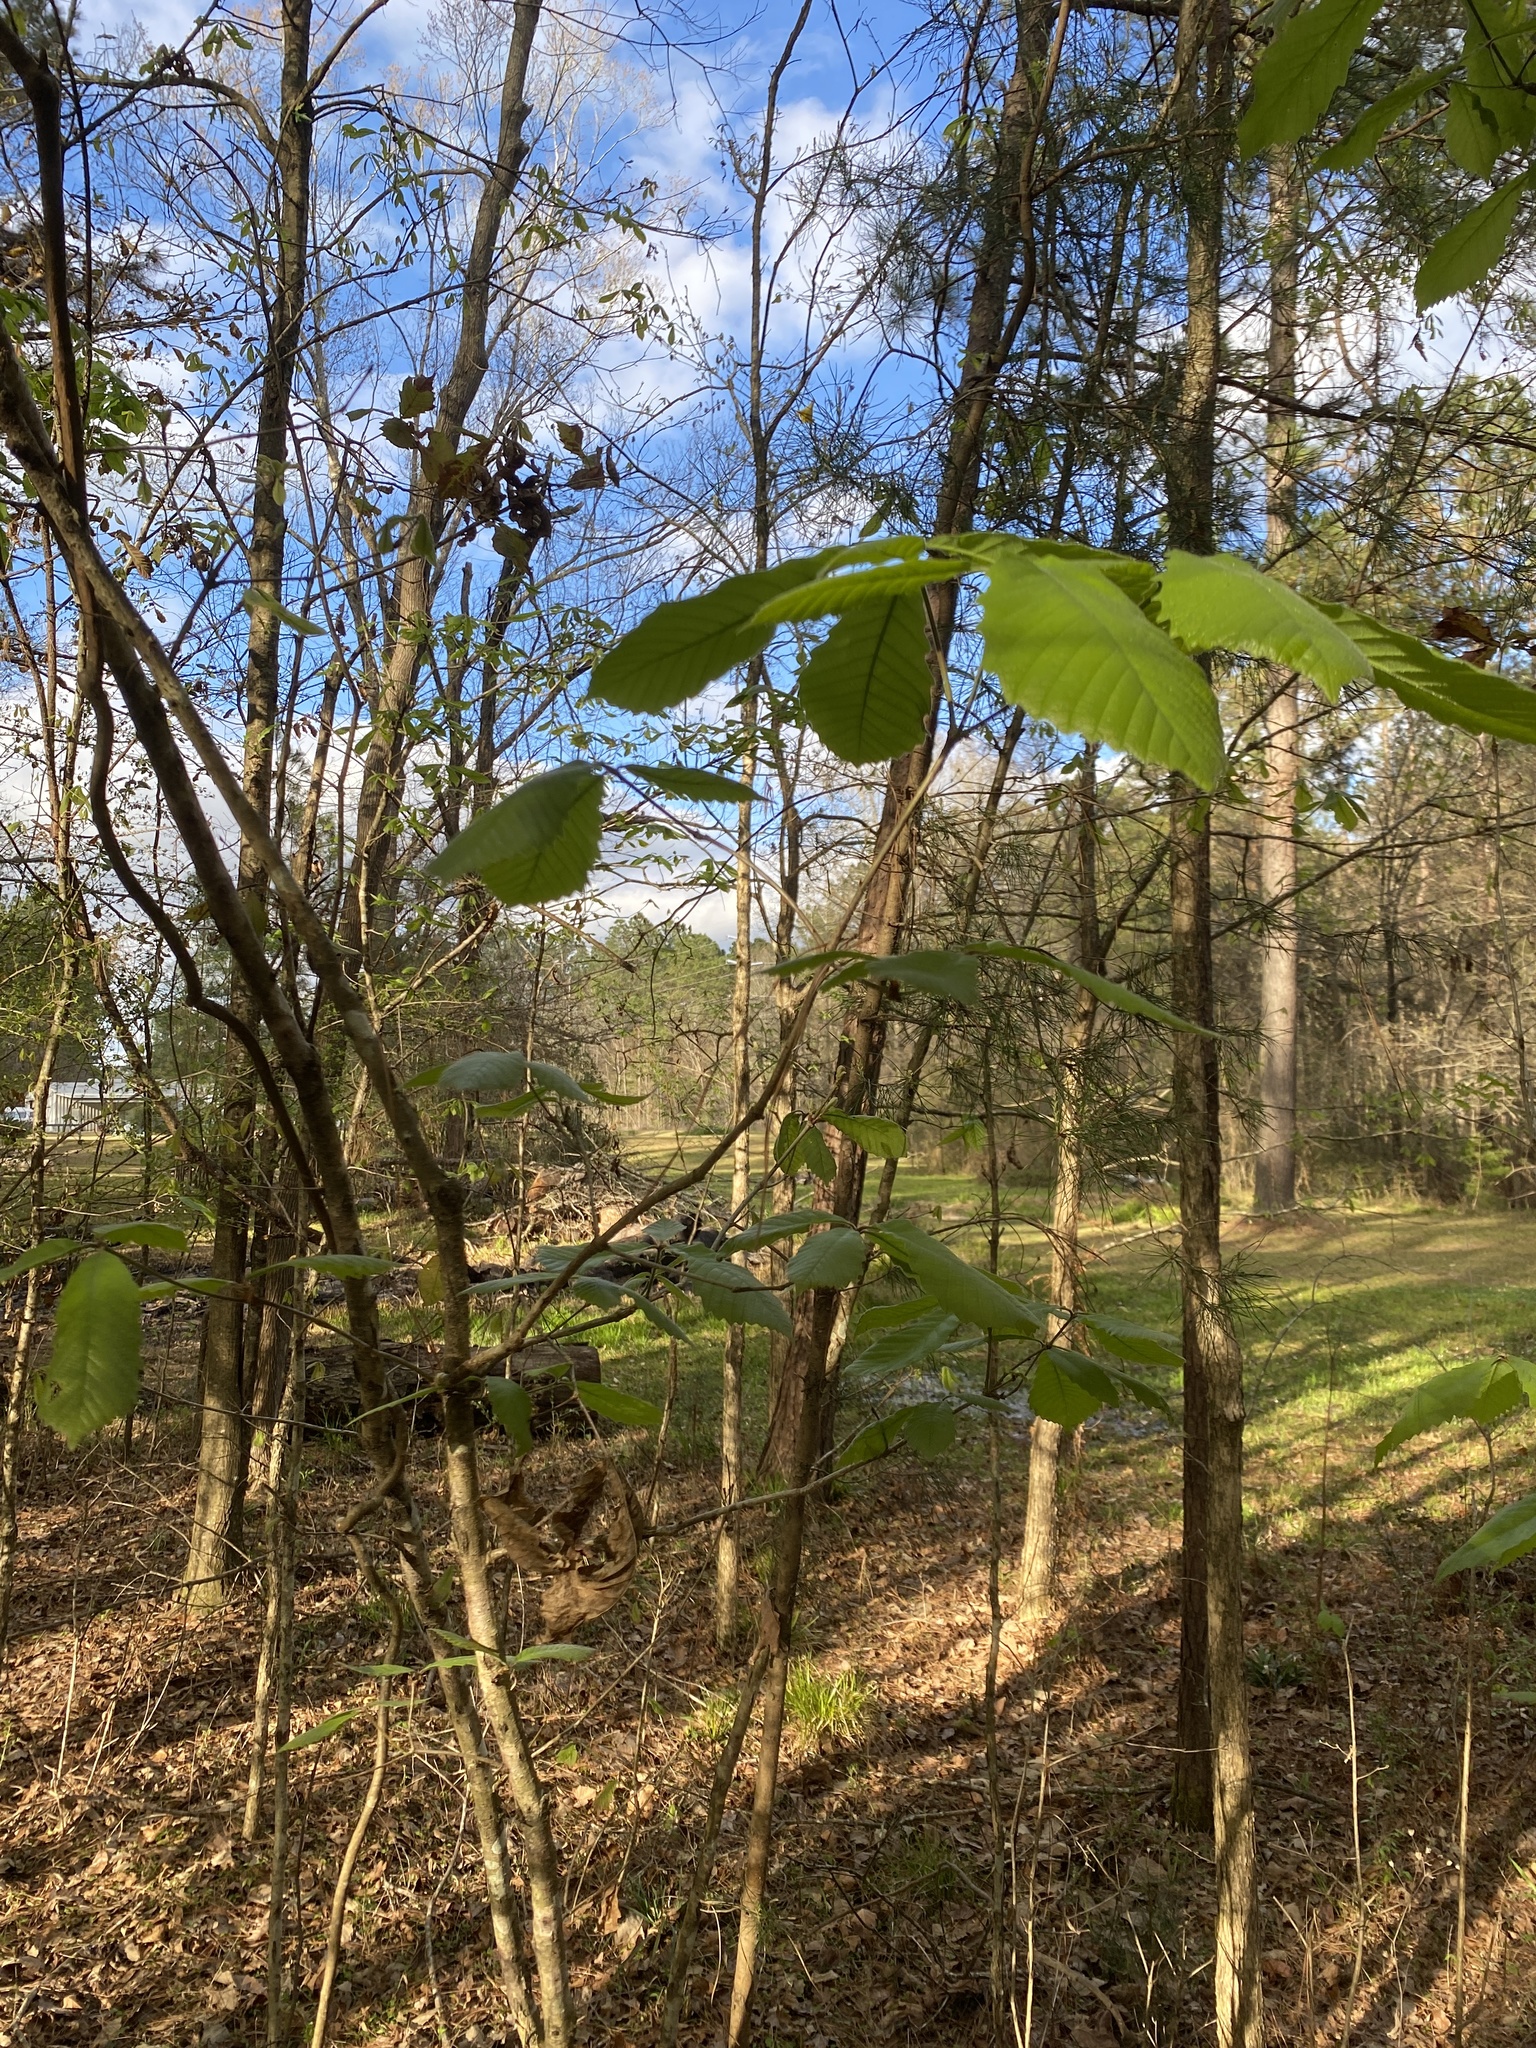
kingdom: Plantae
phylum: Tracheophyta
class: Magnoliopsida
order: Fagales
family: Fagaceae
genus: Quercus
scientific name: Quercus michauxii
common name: Swamp chestnut oak
